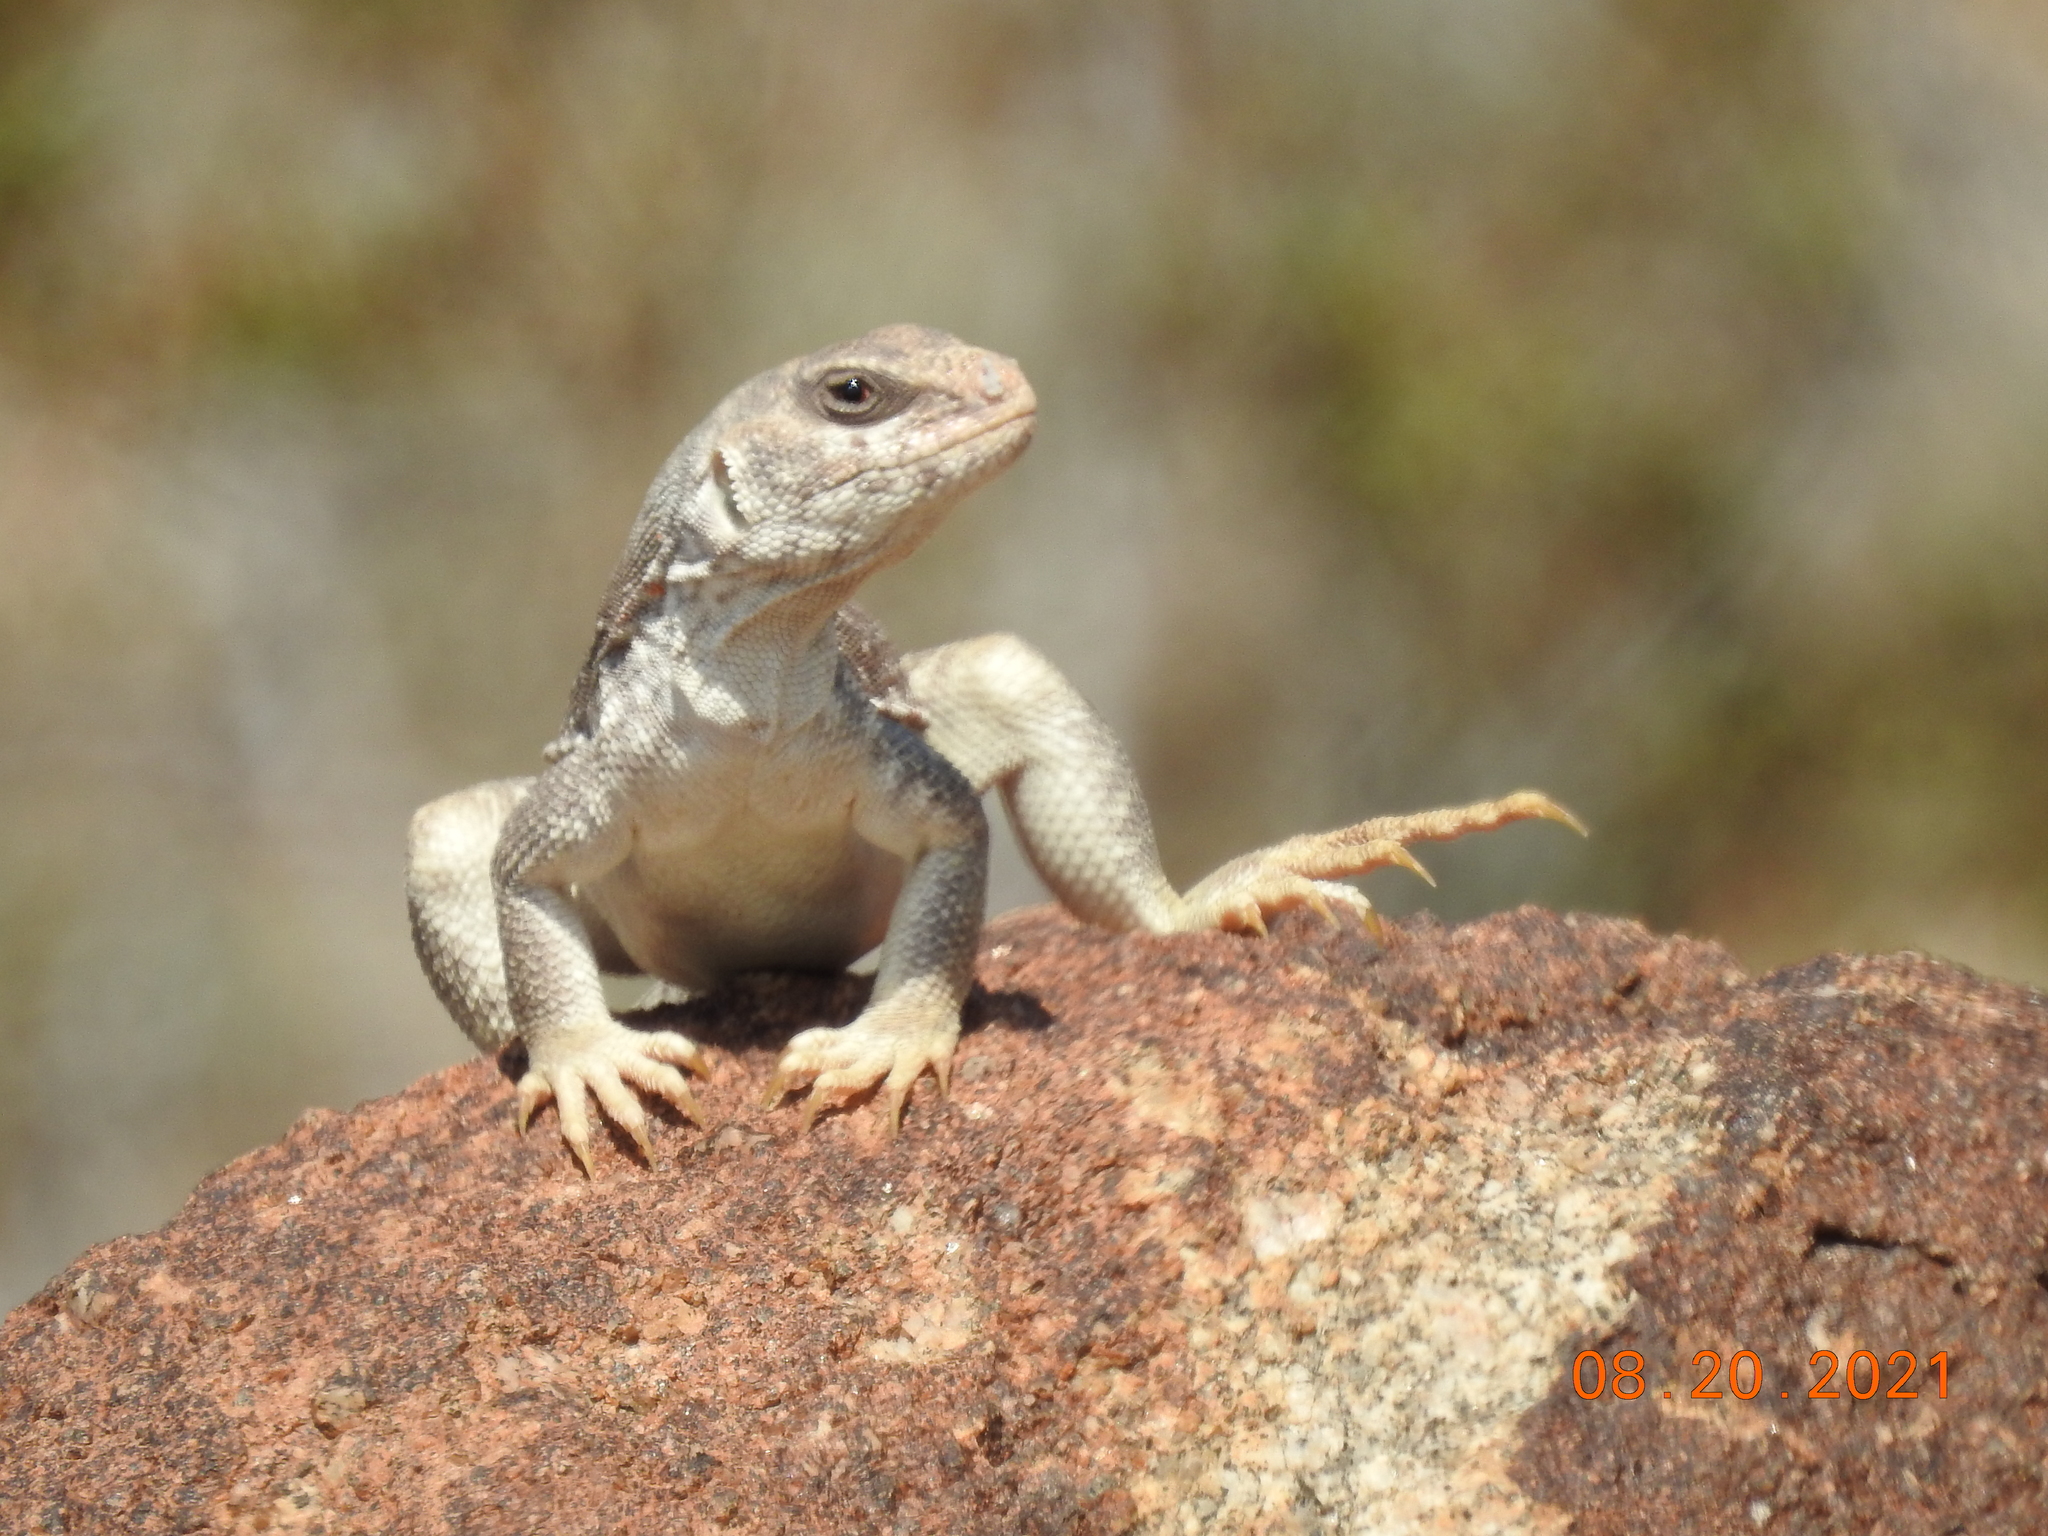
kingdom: Animalia
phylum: Chordata
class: Squamata
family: Iguanidae
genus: Dipsosaurus
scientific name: Dipsosaurus dorsalis
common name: Desert iguana
